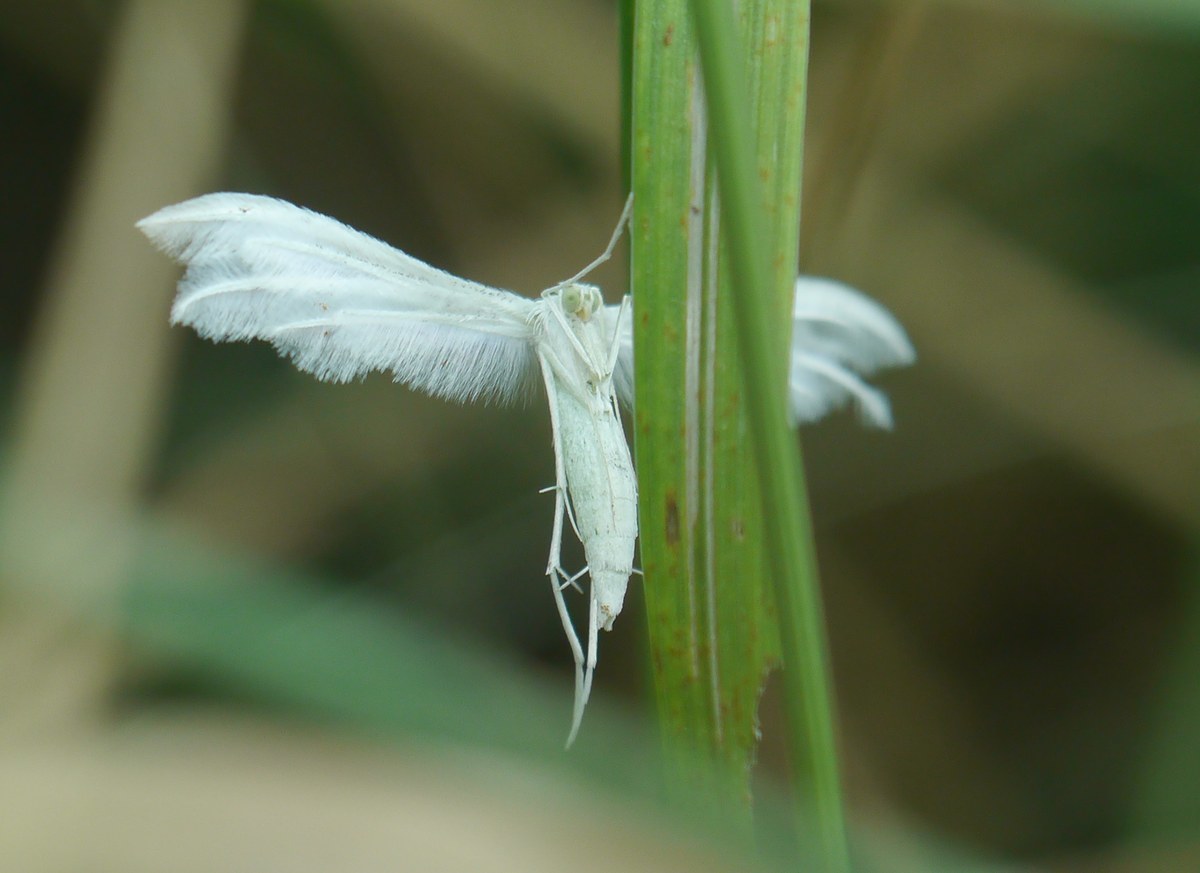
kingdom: Animalia
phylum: Arthropoda
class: Insecta
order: Lepidoptera
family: Pterophoridae
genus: Pterophorus
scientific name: Pterophorus pentadactyla
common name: White plume moth
